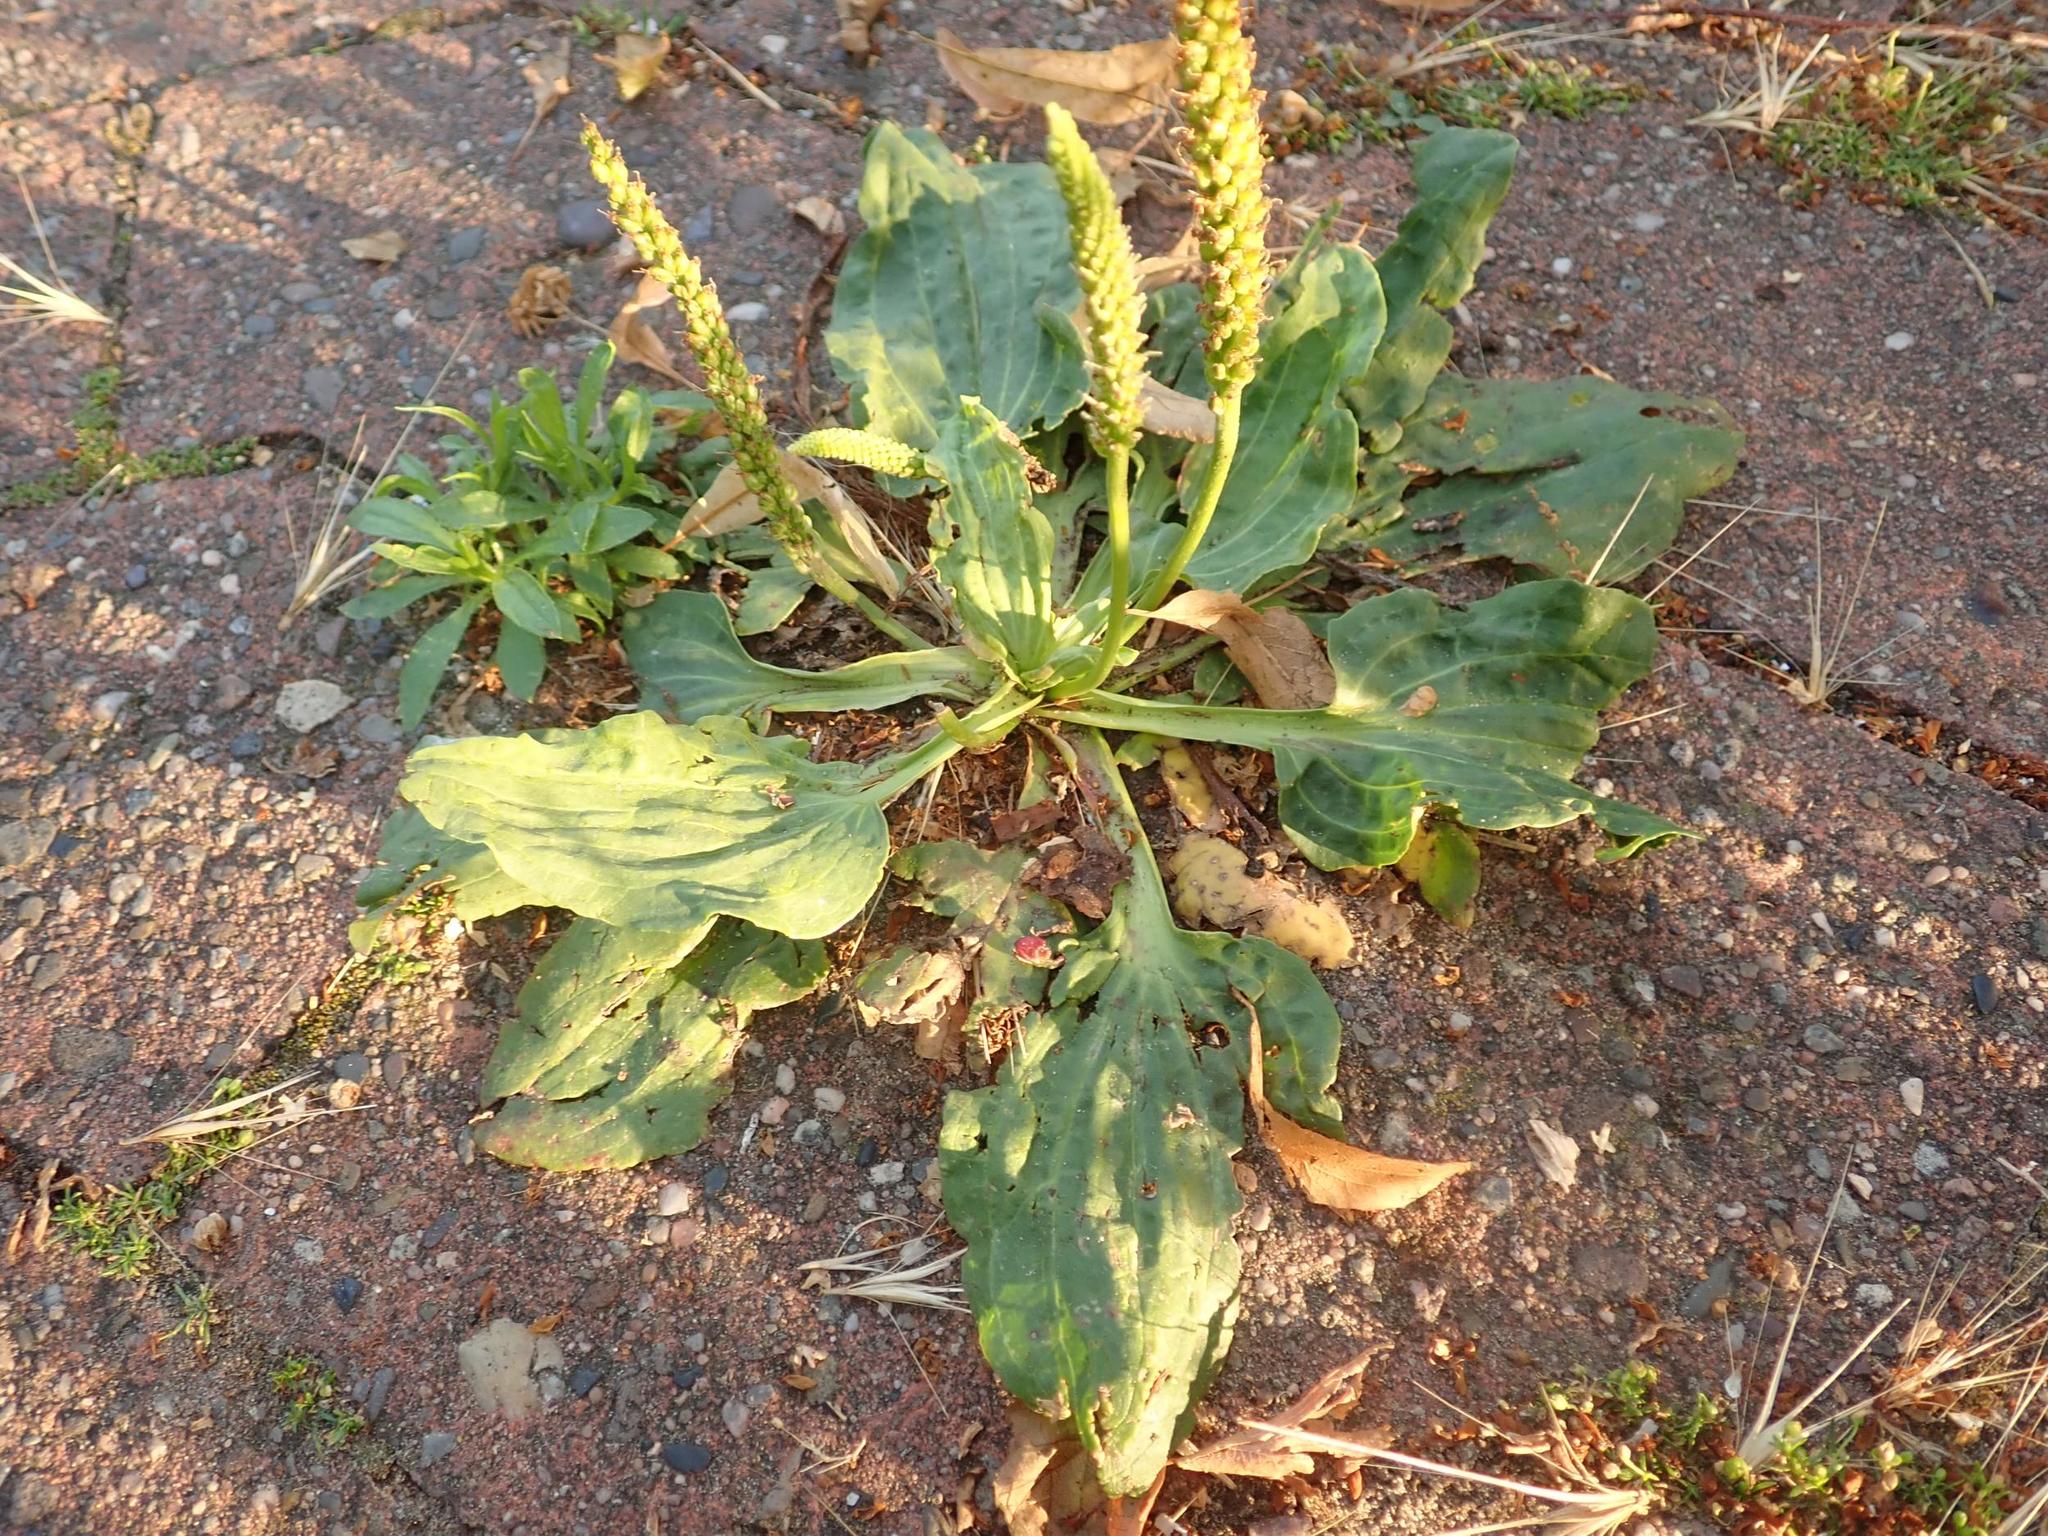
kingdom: Plantae
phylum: Tracheophyta
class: Magnoliopsida
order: Lamiales
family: Plantaginaceae
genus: Plantago
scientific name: Plantago major
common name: Common plantain
